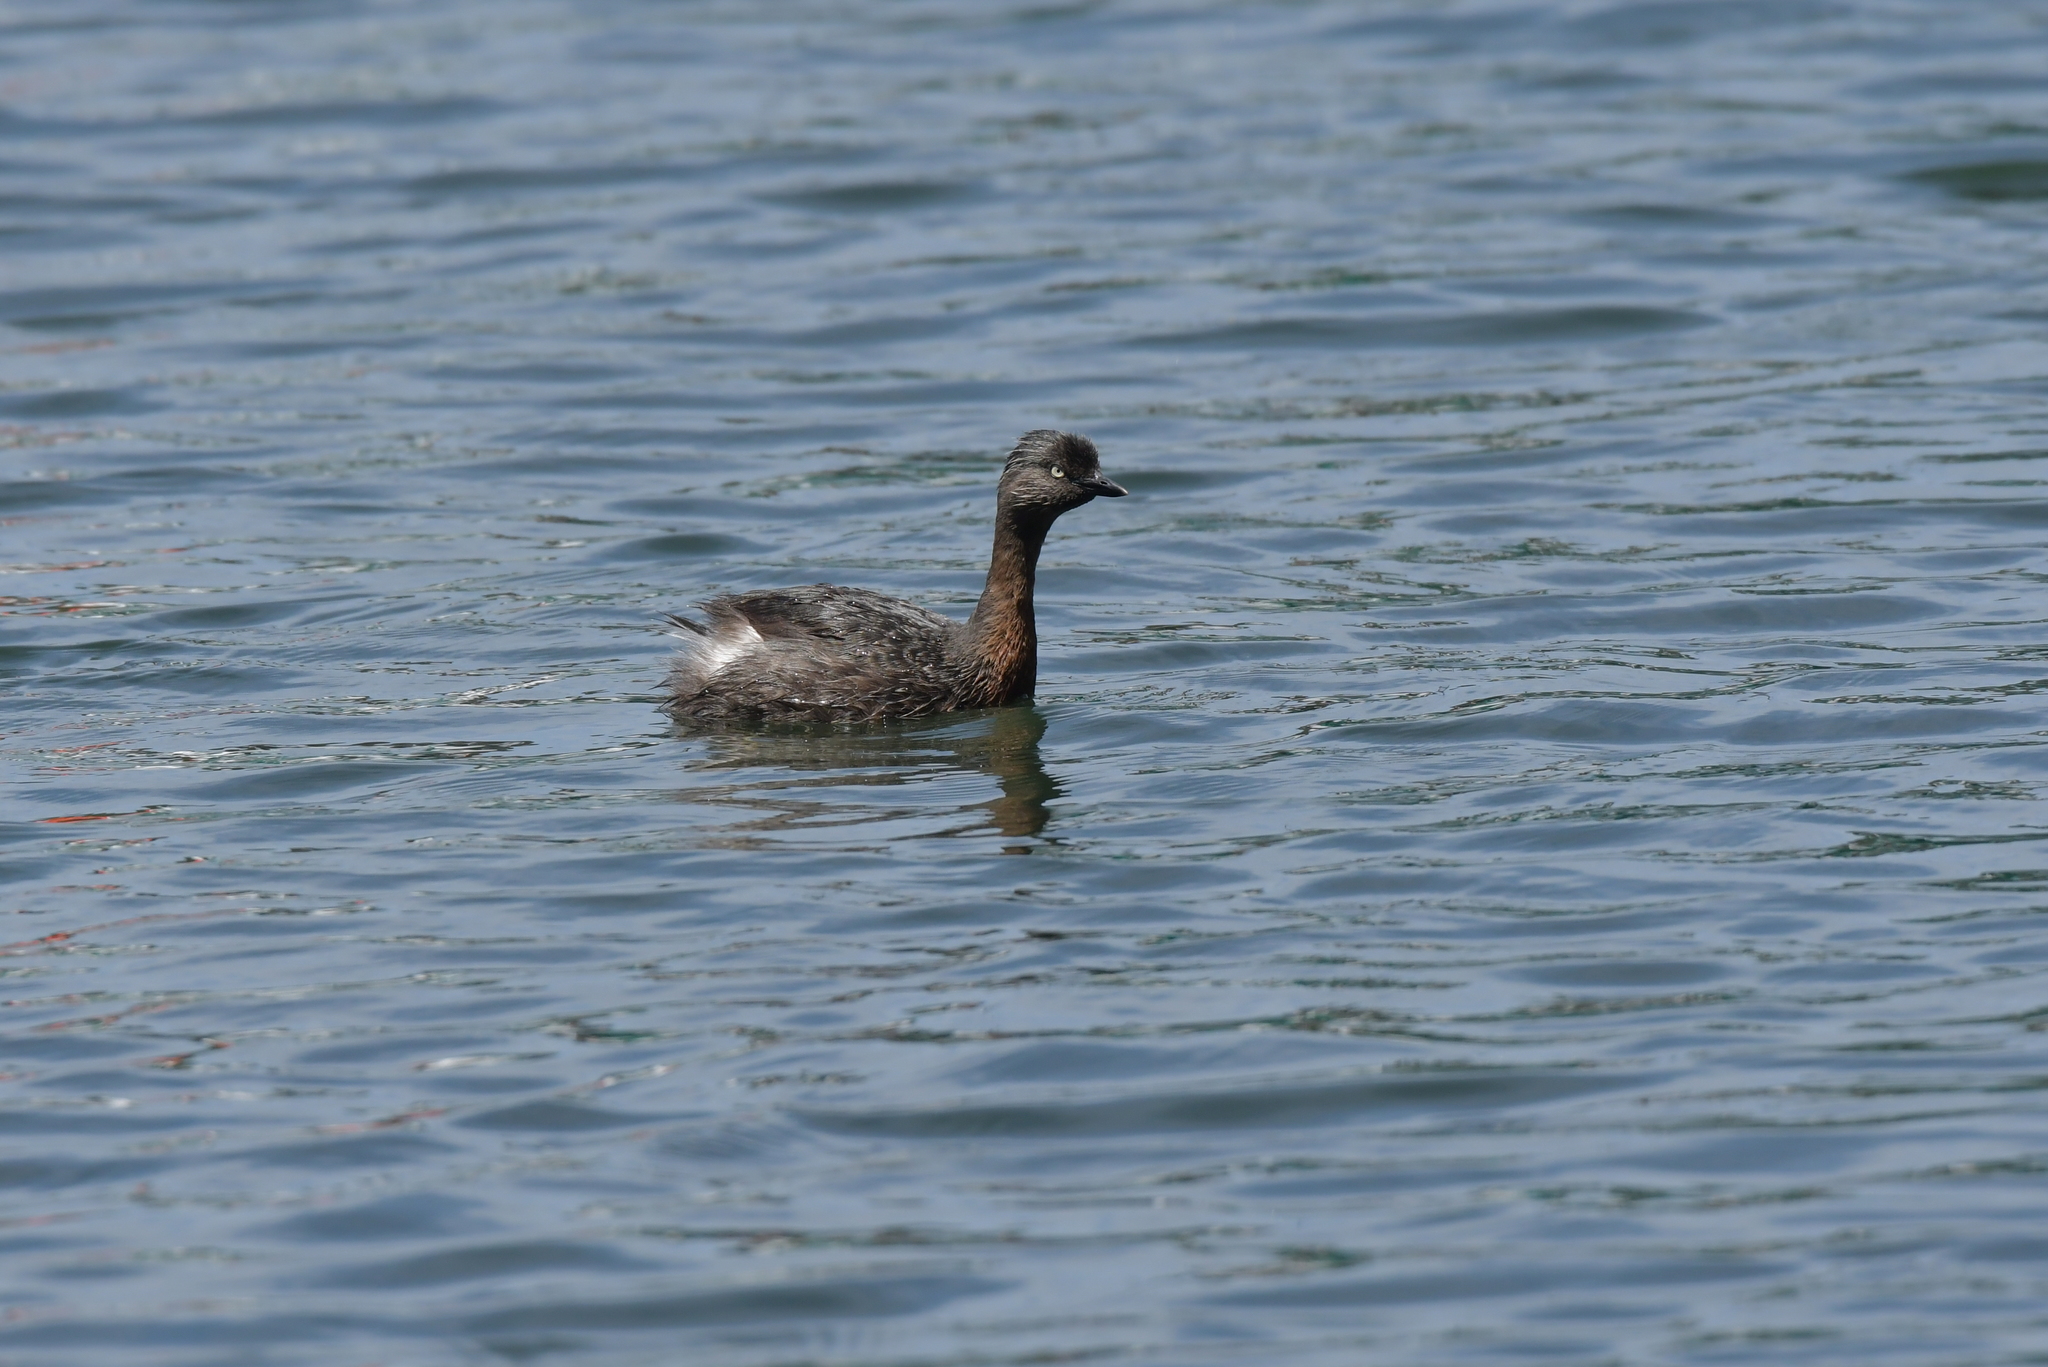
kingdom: Animalia
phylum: Chordata
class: Aves
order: Podicipediformes
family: Podicipedidae
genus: Poliocephalus
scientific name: Poliocephalus rufopectus
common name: New zealand grebe
